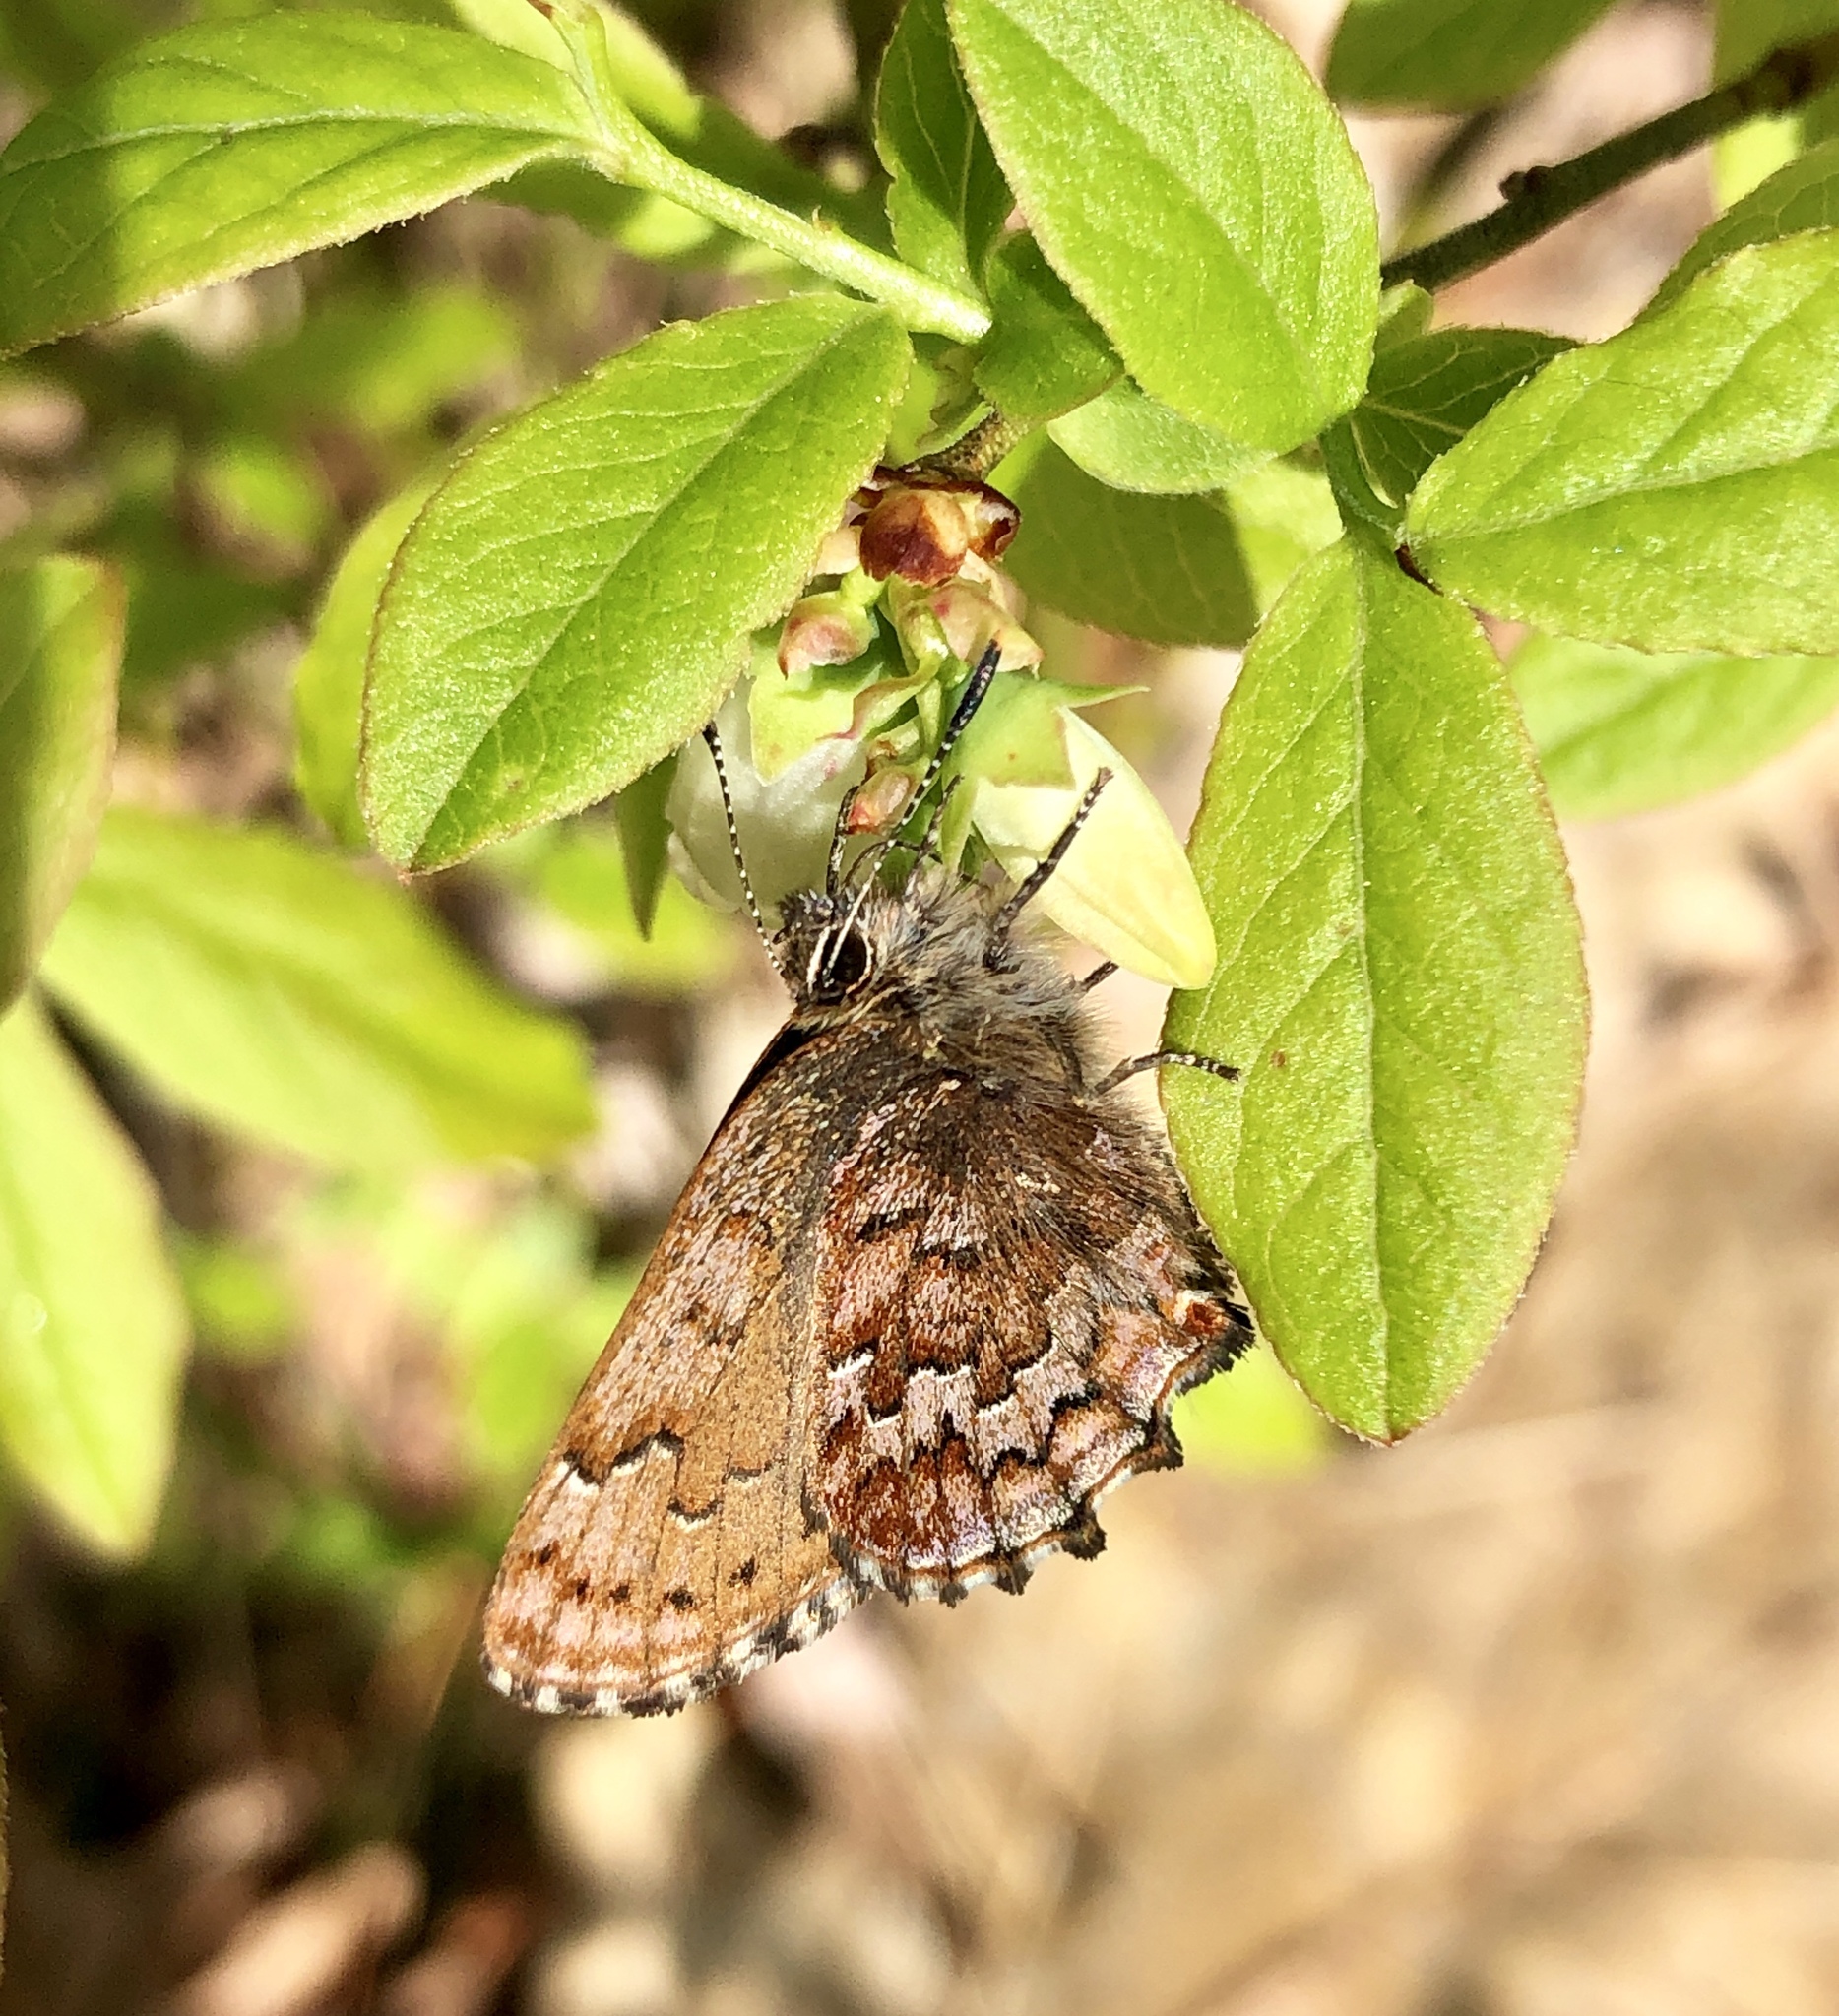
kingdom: Animalia
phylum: Arthropoda
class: Insecta
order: Lepidoptera
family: Lycaenidae
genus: Incisalia
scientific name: Incisalia niphon
